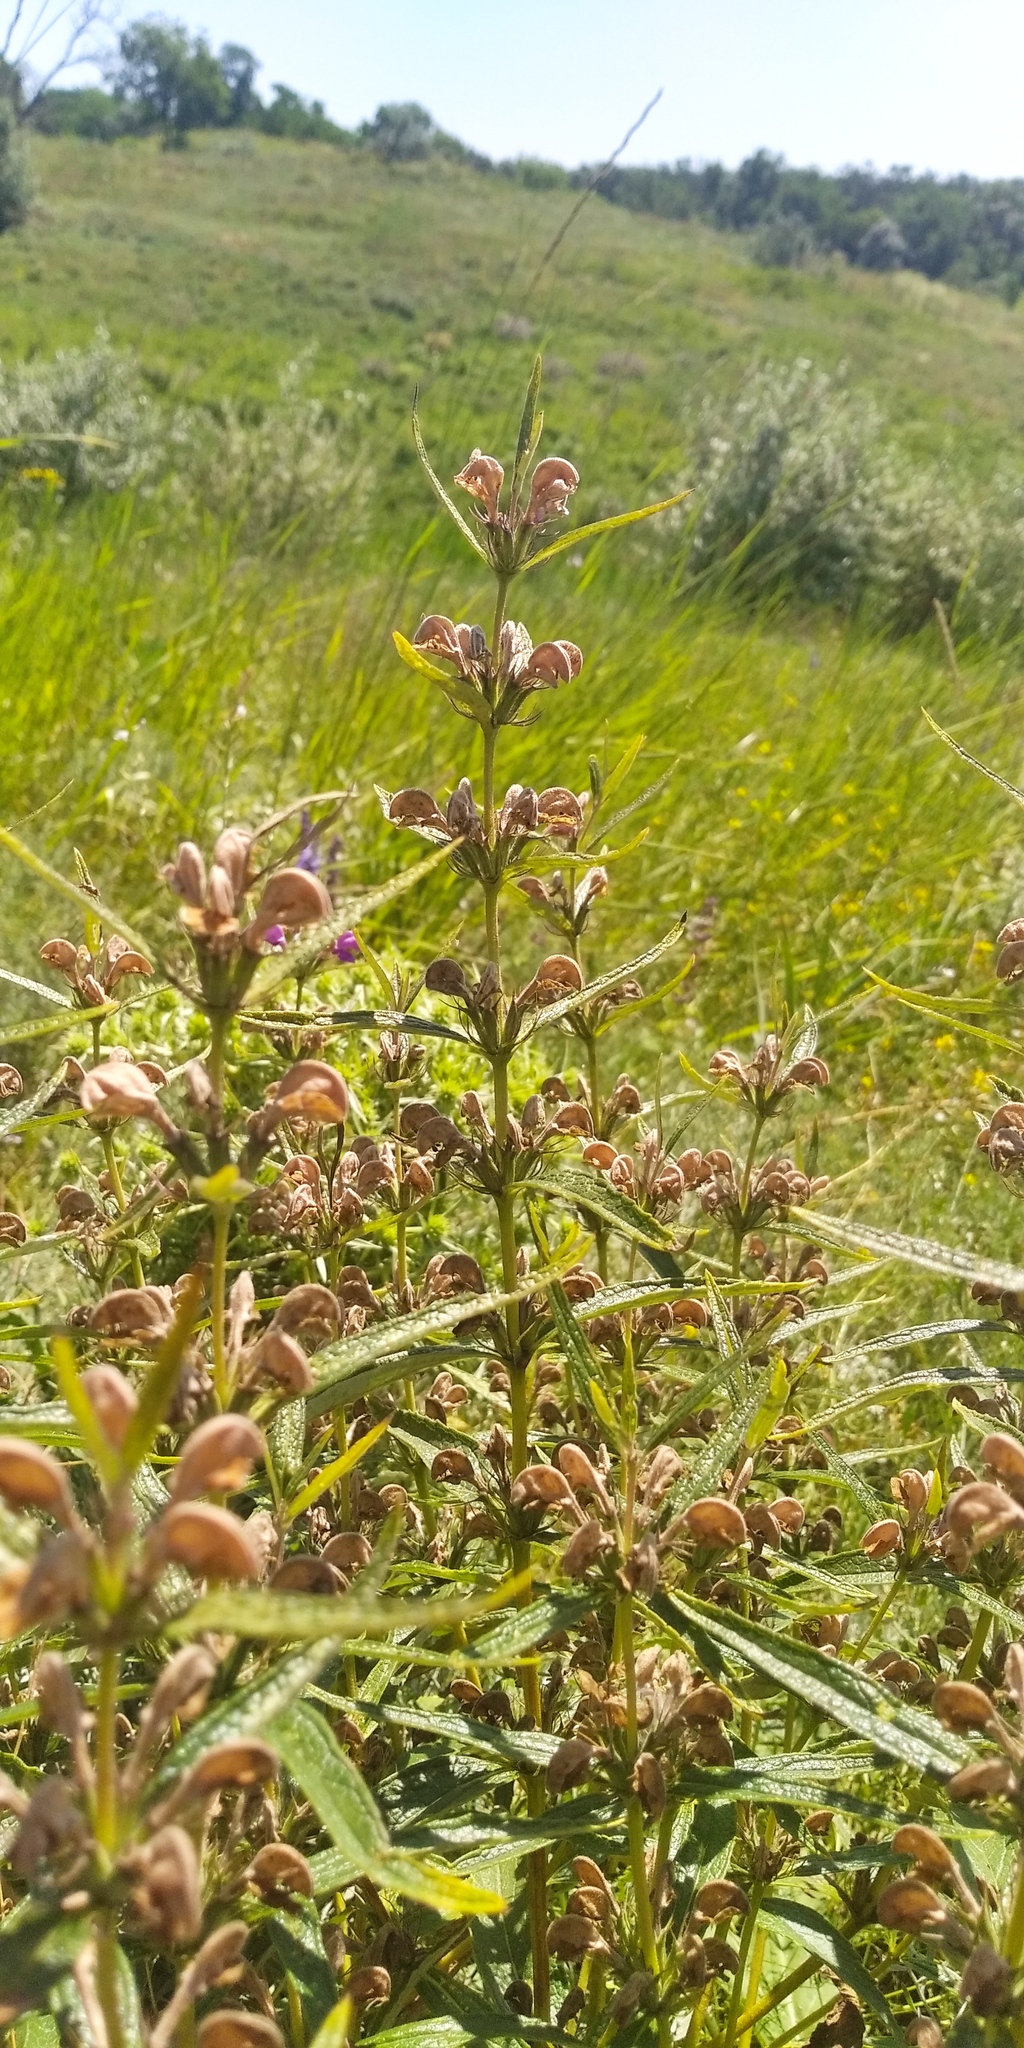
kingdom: Plantae
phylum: Tracheophyta
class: Magnoliopsida
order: Lamiales
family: Lamiaceae
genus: Phlomis
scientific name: Phlomis herba-venti
